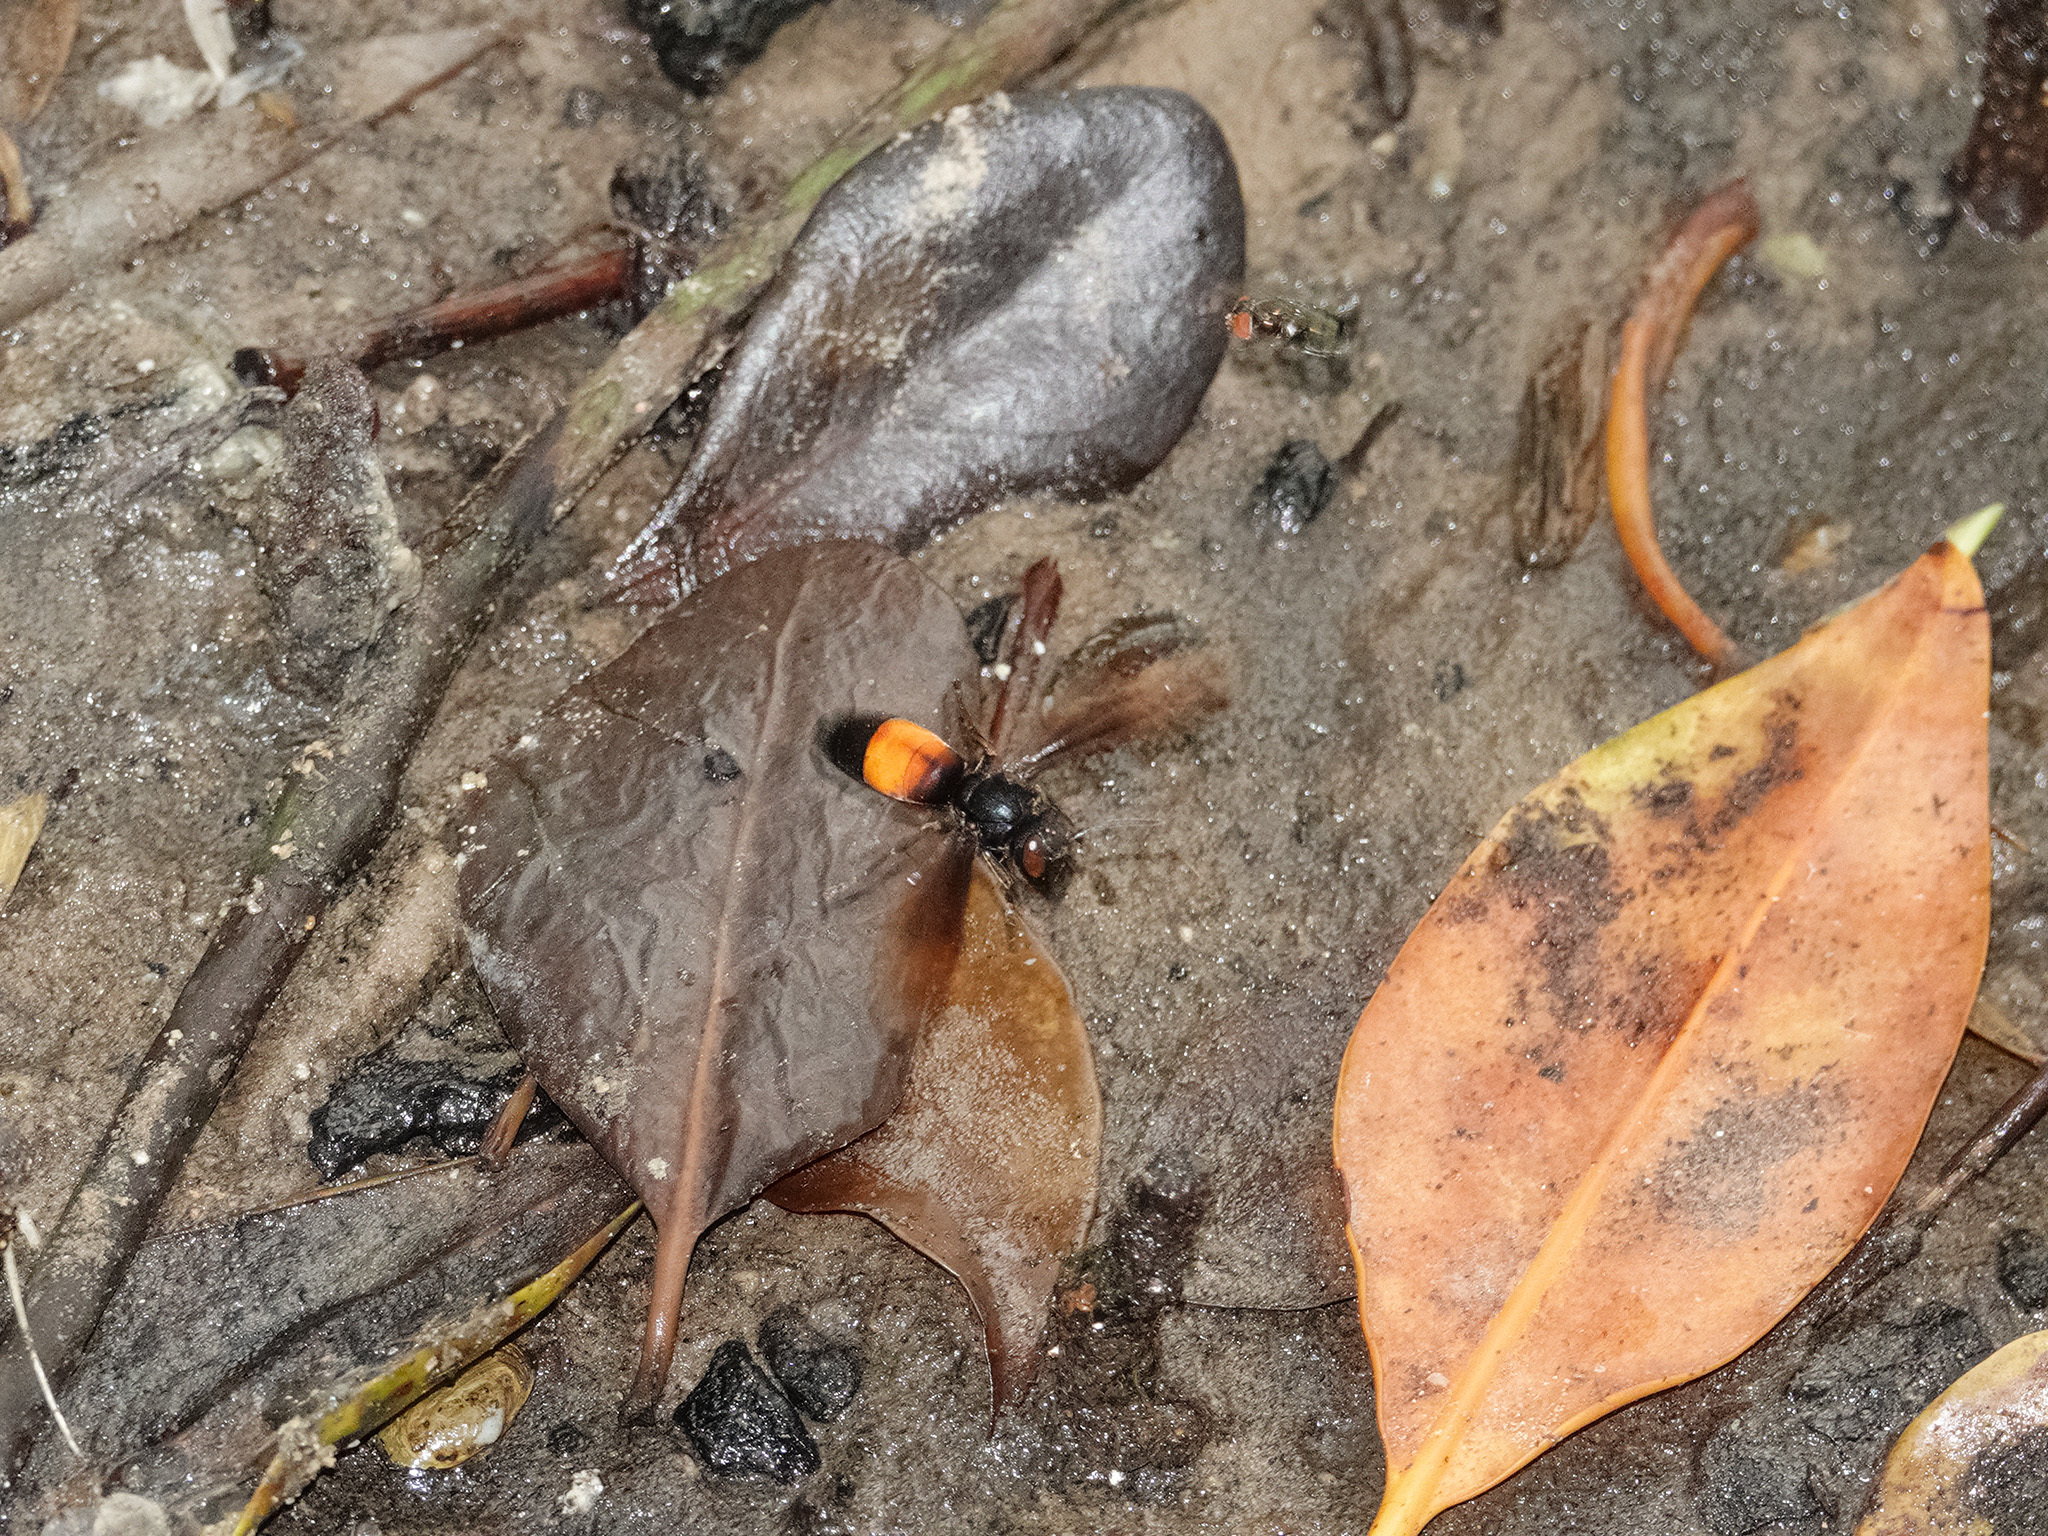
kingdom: Animalia
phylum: Arthropoda
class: Insecta
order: Hymenoptera
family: Vespidae
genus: Vespa
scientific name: Vespa affinis
